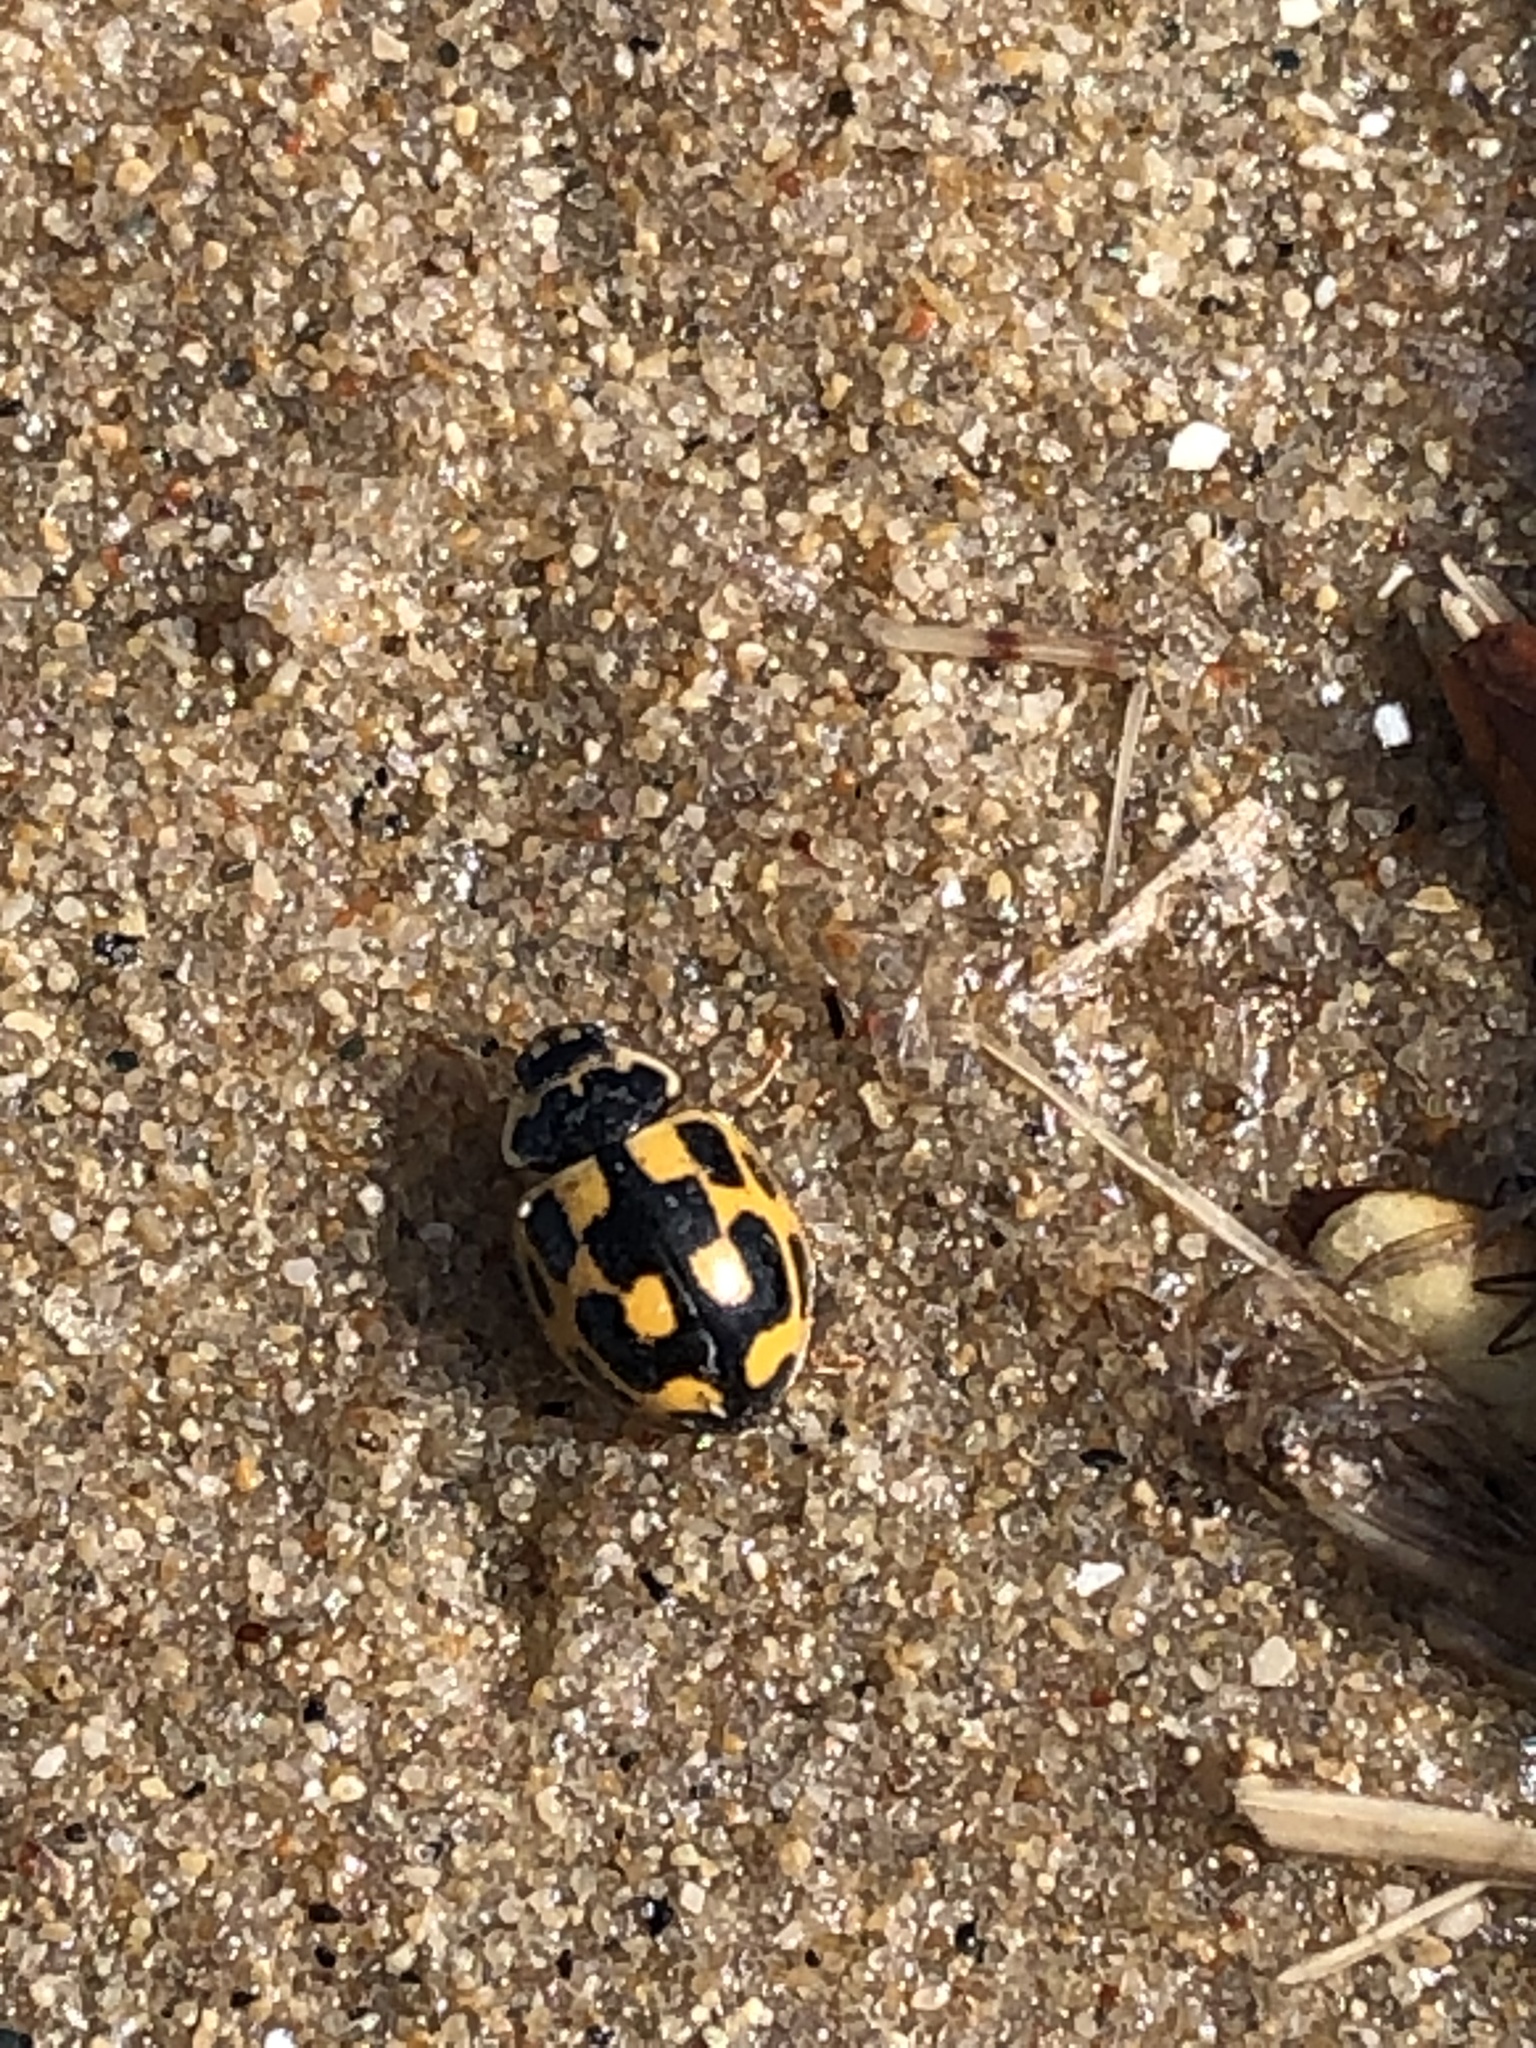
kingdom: Animalia
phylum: Arthropoda
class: Insecta
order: Coleoptera
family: Coccinellidae
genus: Propylaea
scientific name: Propylaea quatuordecimpunctata
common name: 14-spotted ladybird beetle
